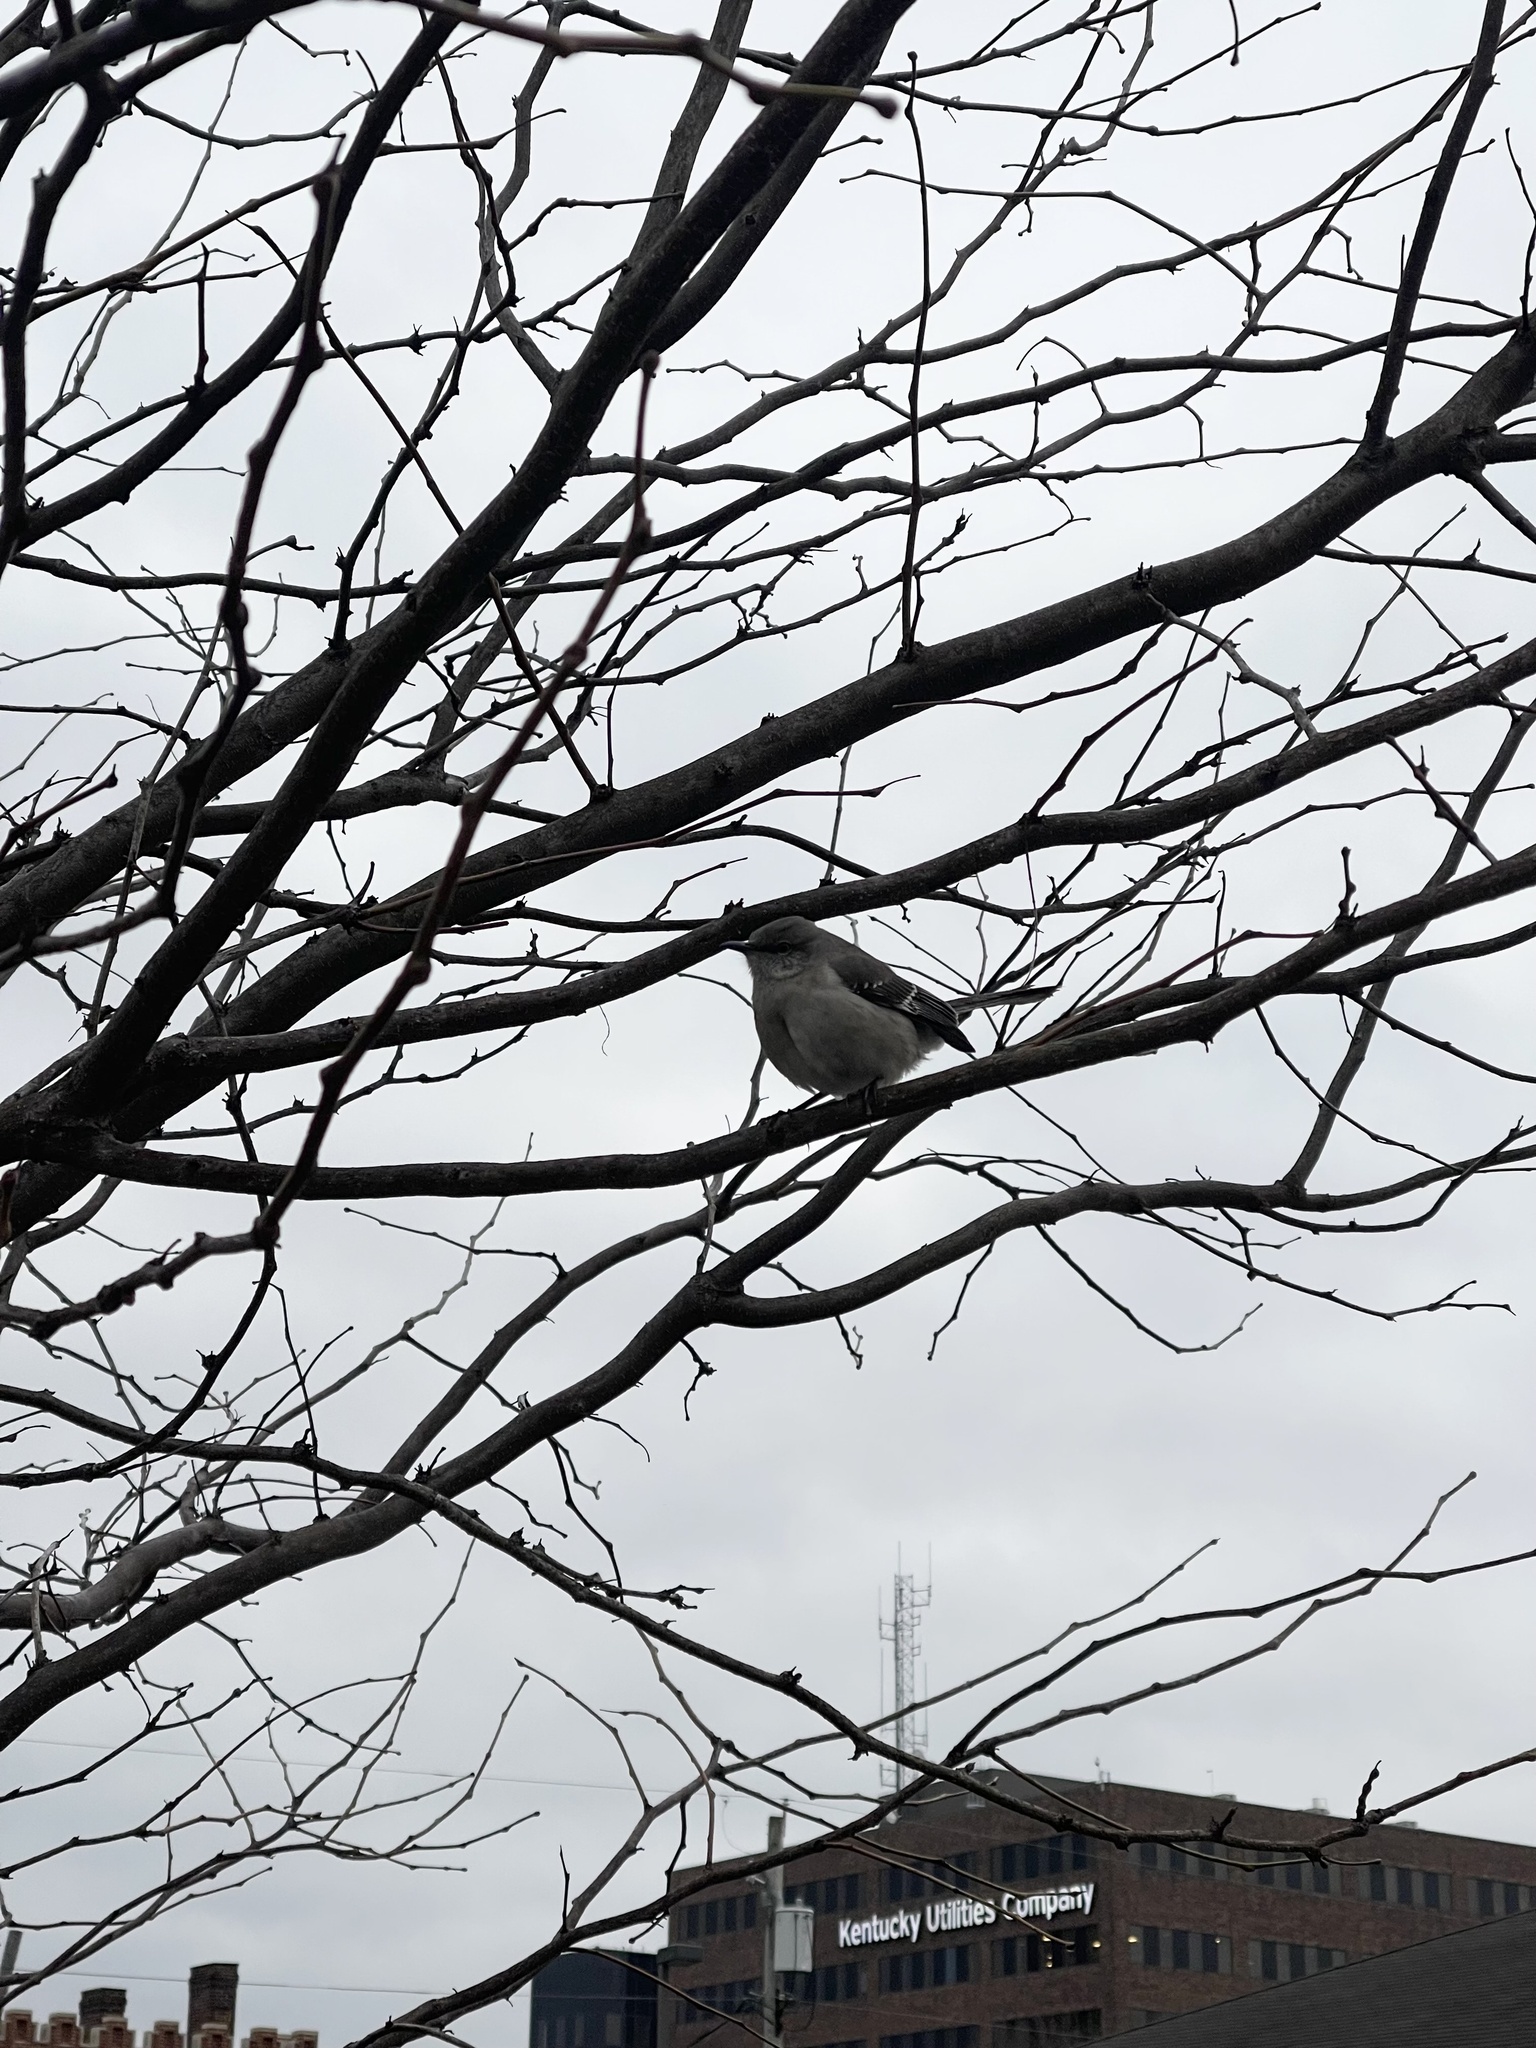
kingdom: Animalia
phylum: Chordata
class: Aves
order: Passeriformes
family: Mimidae
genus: Mimus
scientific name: Mimus polyglottos
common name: Northern mockingbird
